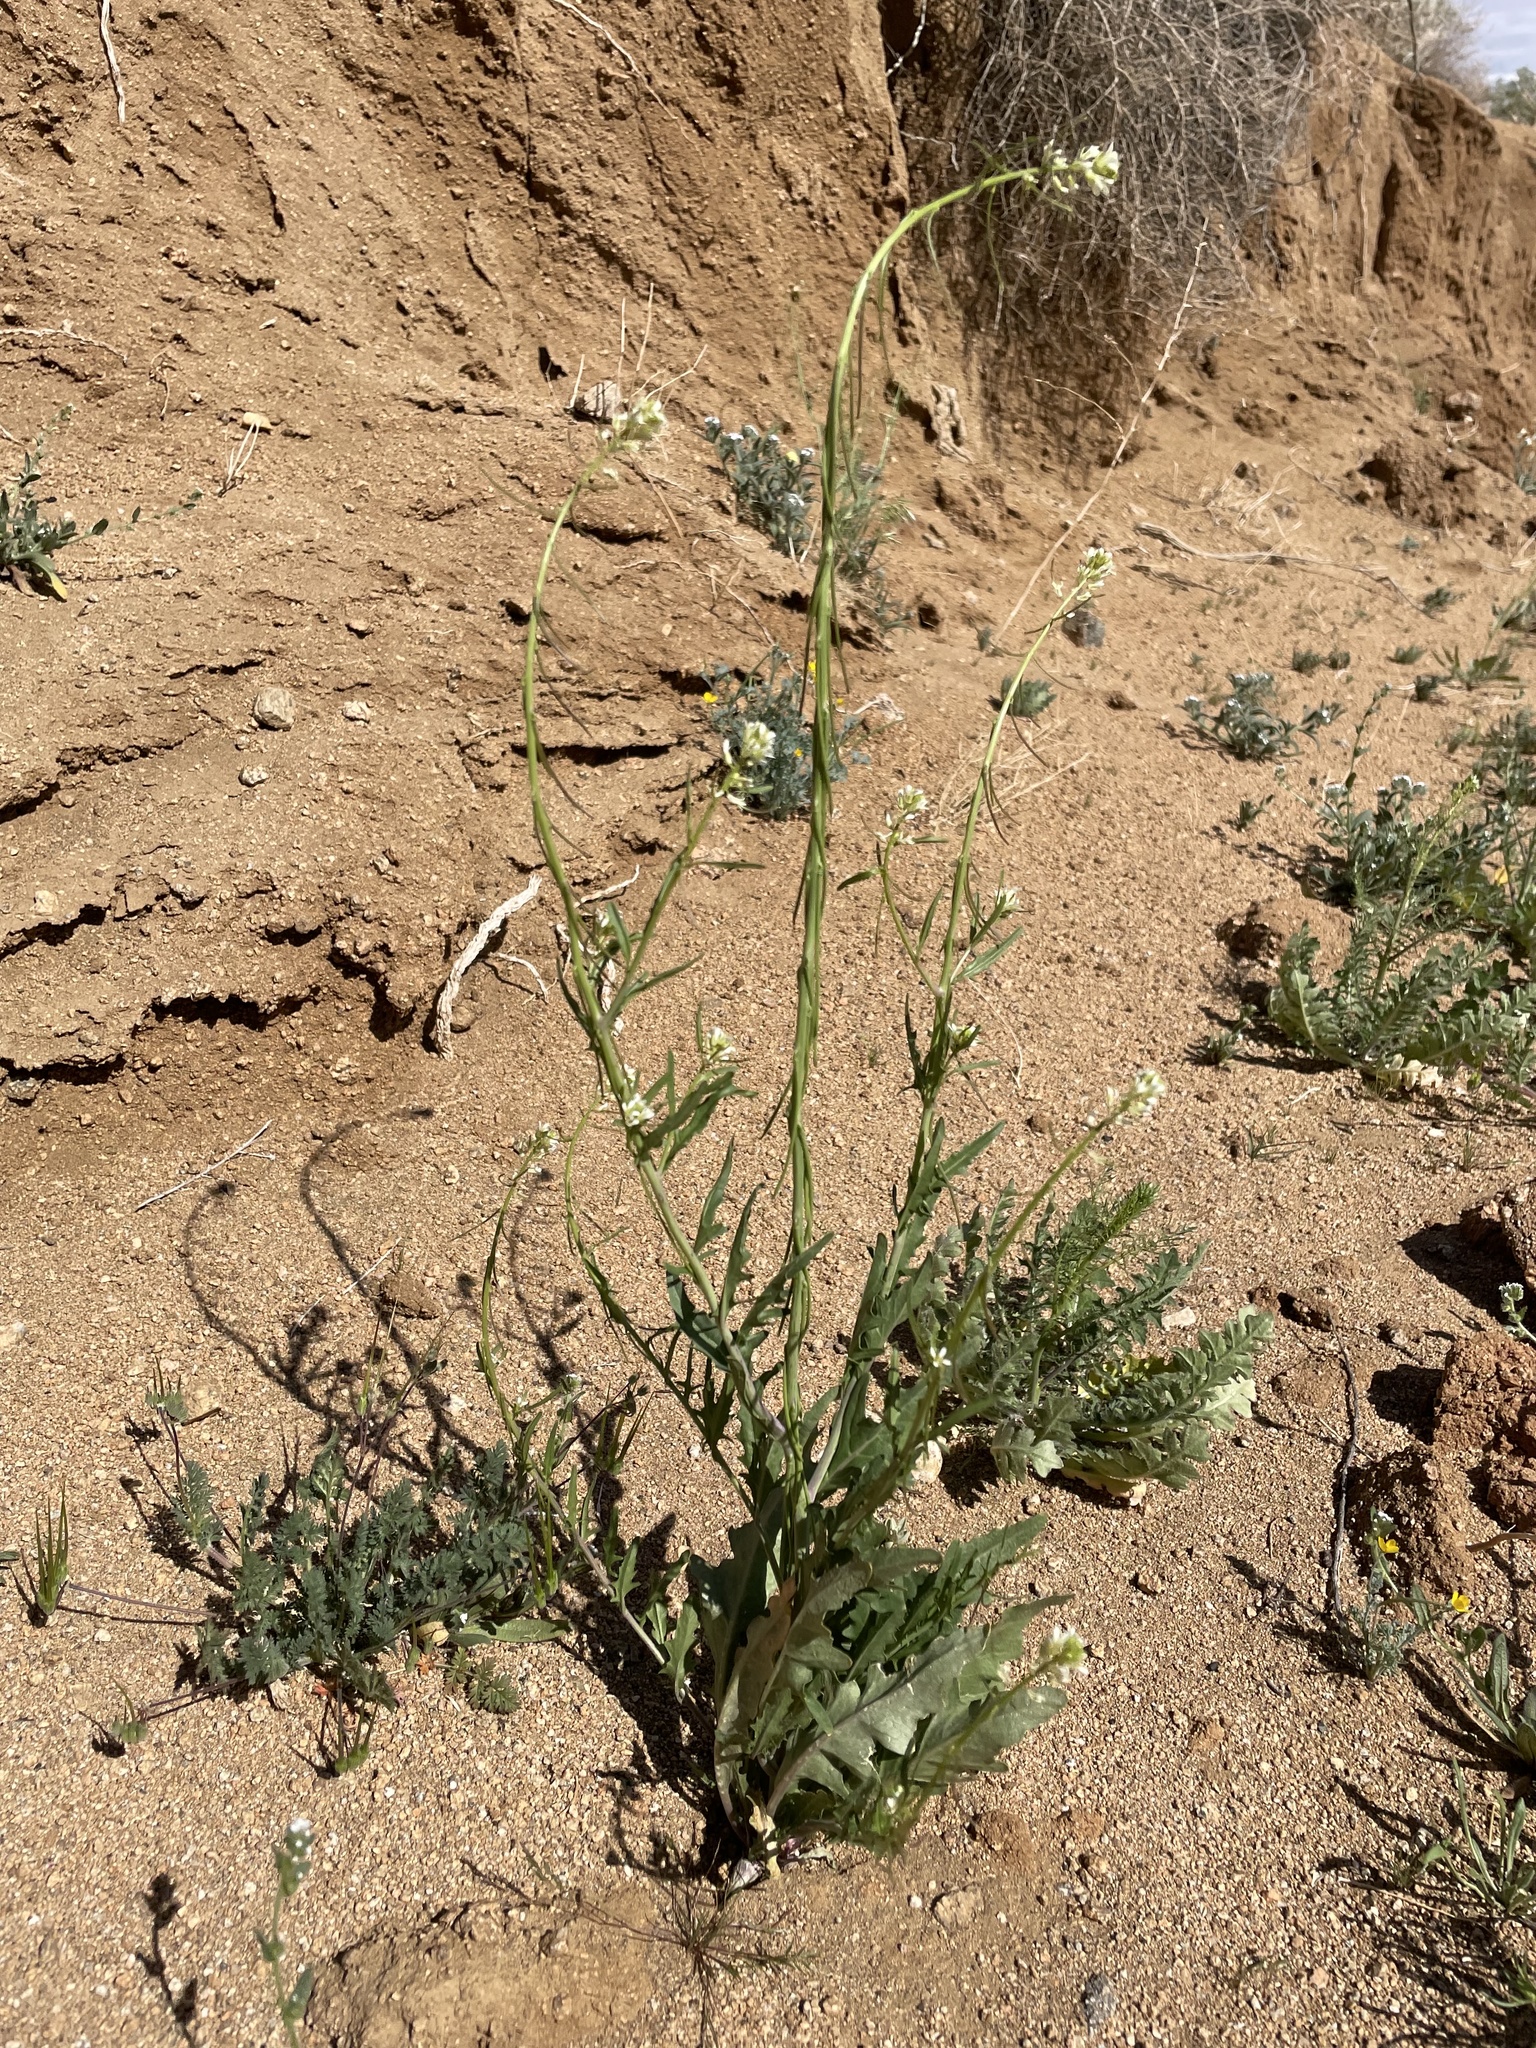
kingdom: Plantae
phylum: Tracheophyta
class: Magnoliopsida
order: Brassicales
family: Brassicaceae
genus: Streptanthus
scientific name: Streptanthus lasiophyllus
